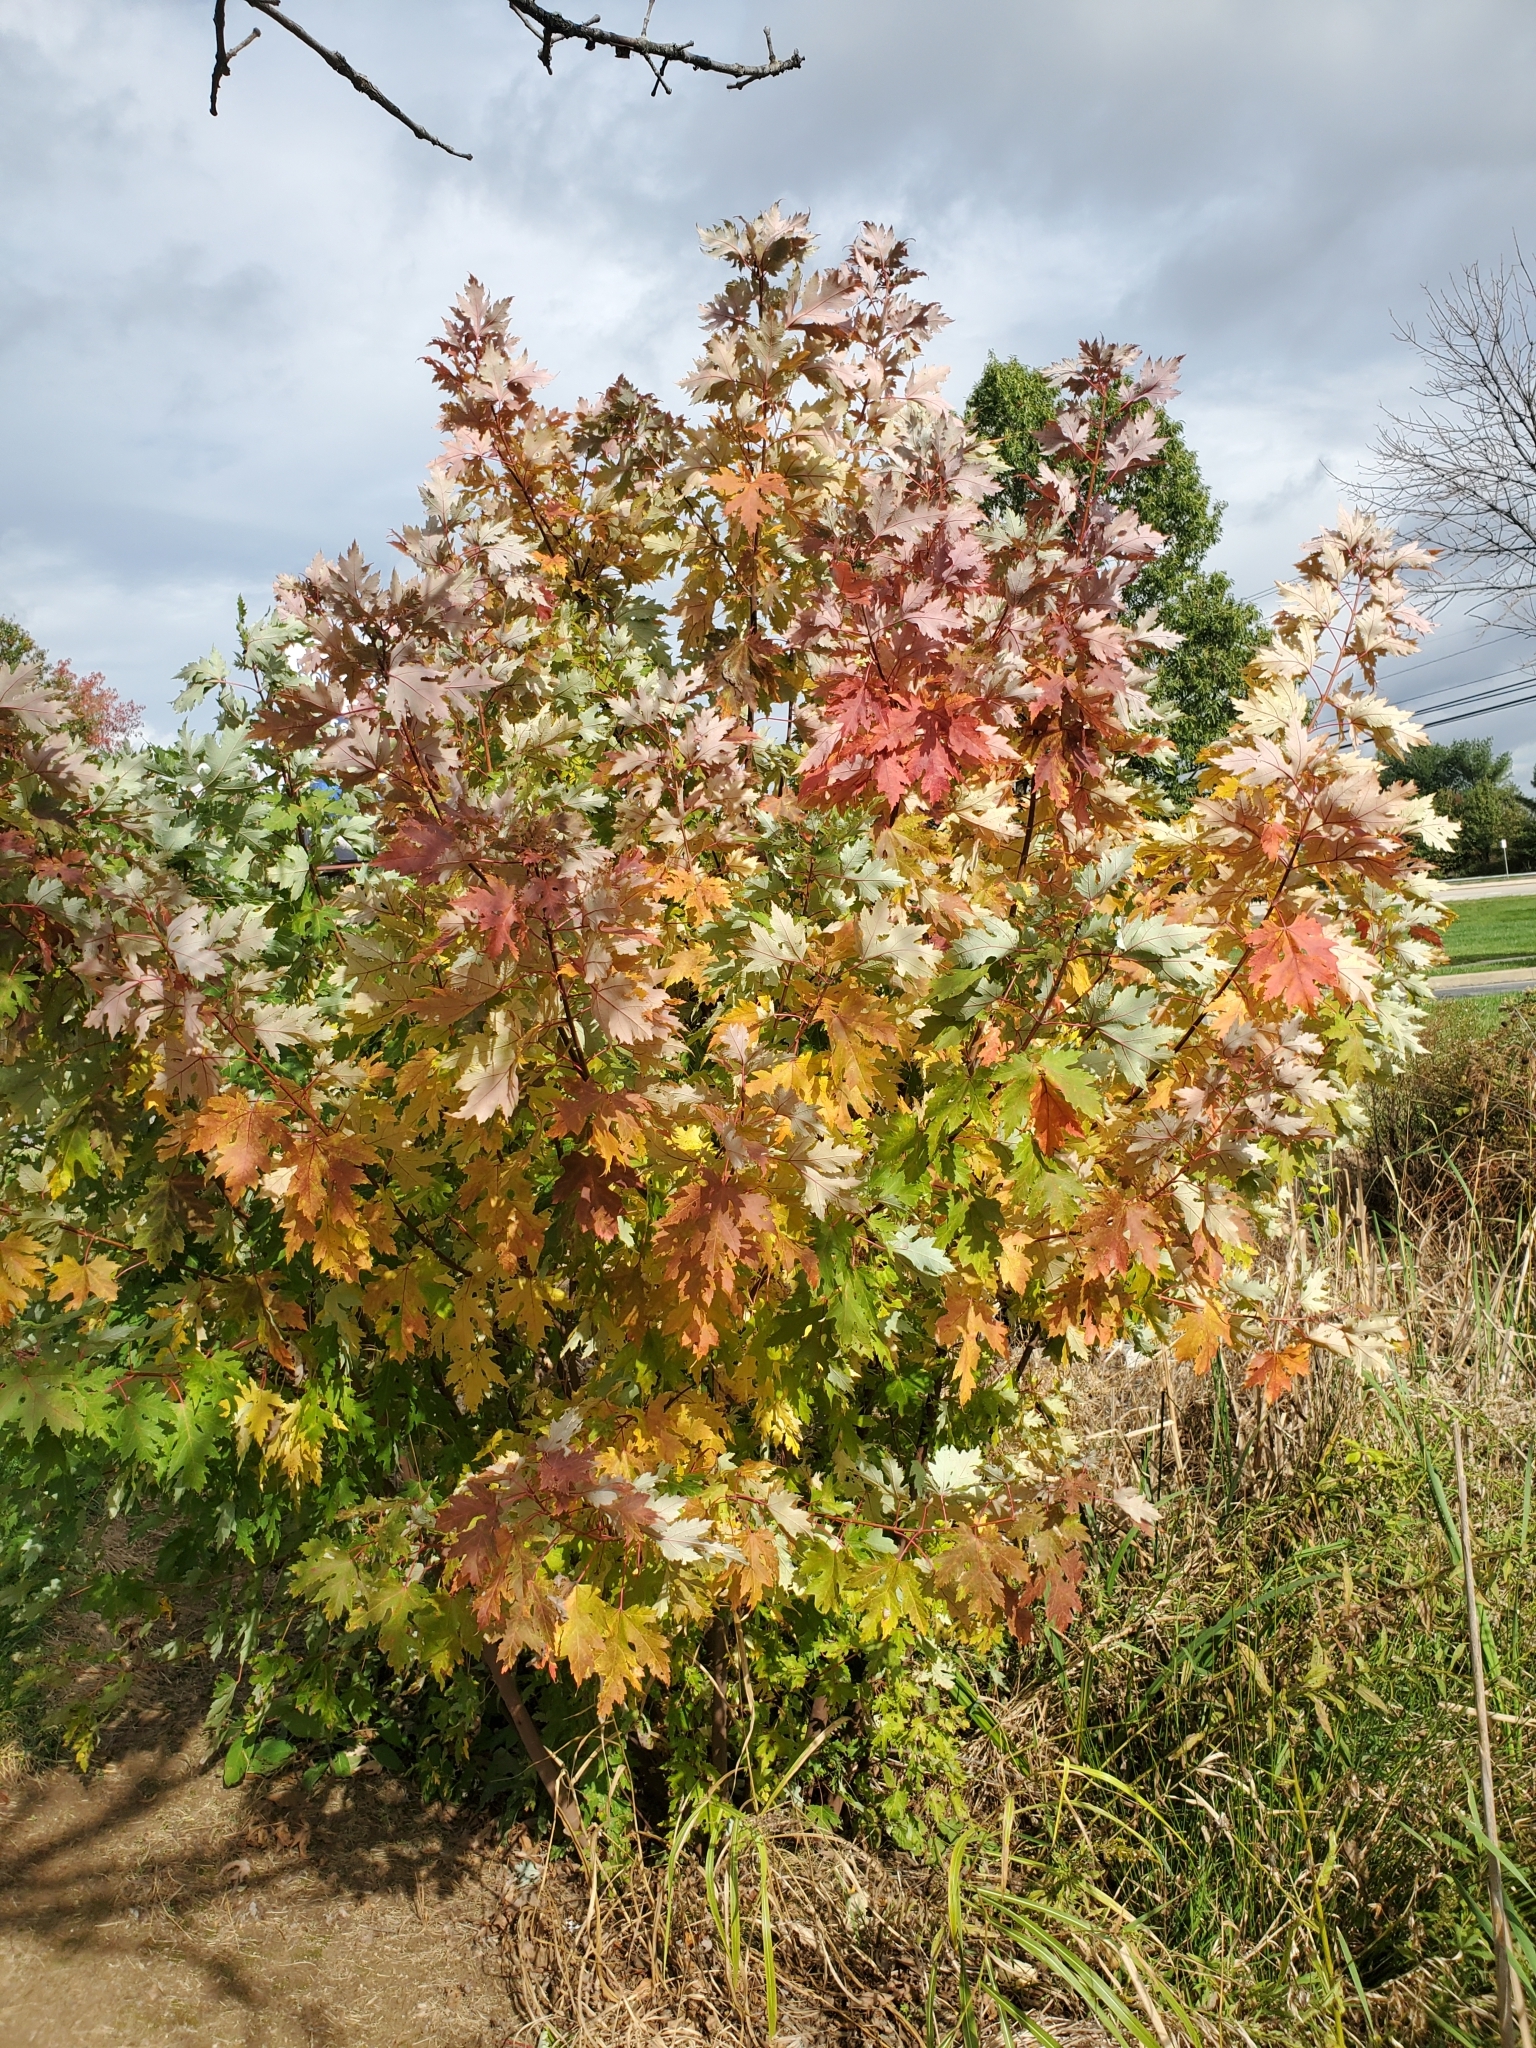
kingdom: Plantae
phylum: Tracheophyta
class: Magnoliopsida
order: Sapindales
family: Sapindaceae
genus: Acer
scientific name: Acer saccharinum
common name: Silver maple
